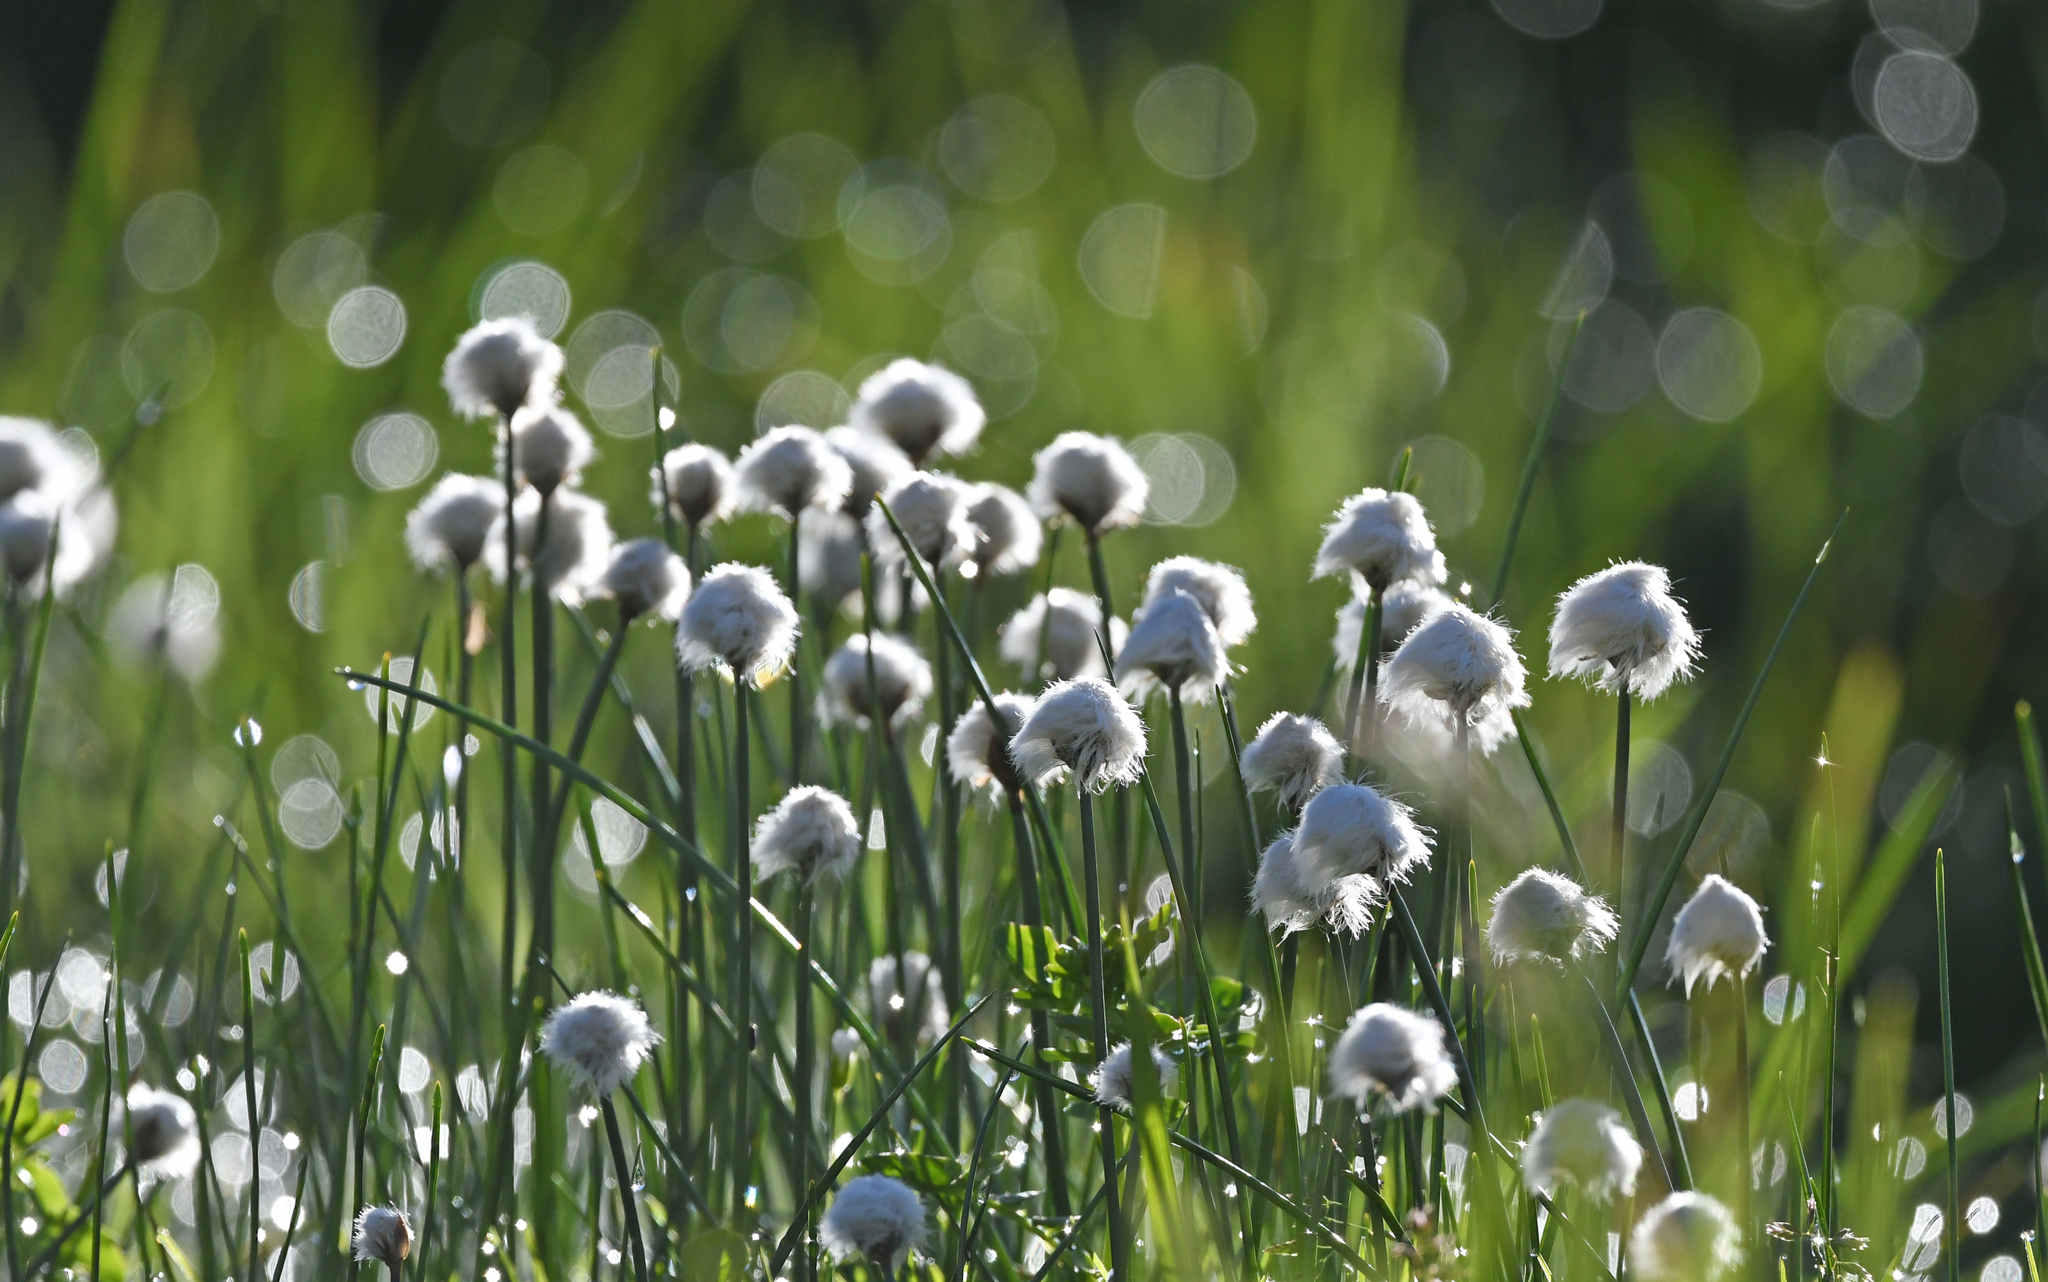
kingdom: Plantae
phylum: Tracheophyta
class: Liliopsida
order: Poales
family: Cyperaceae
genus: Eriophorum
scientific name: Eriophorum scheuchzeri
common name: Scheuchzer's cottongrass
